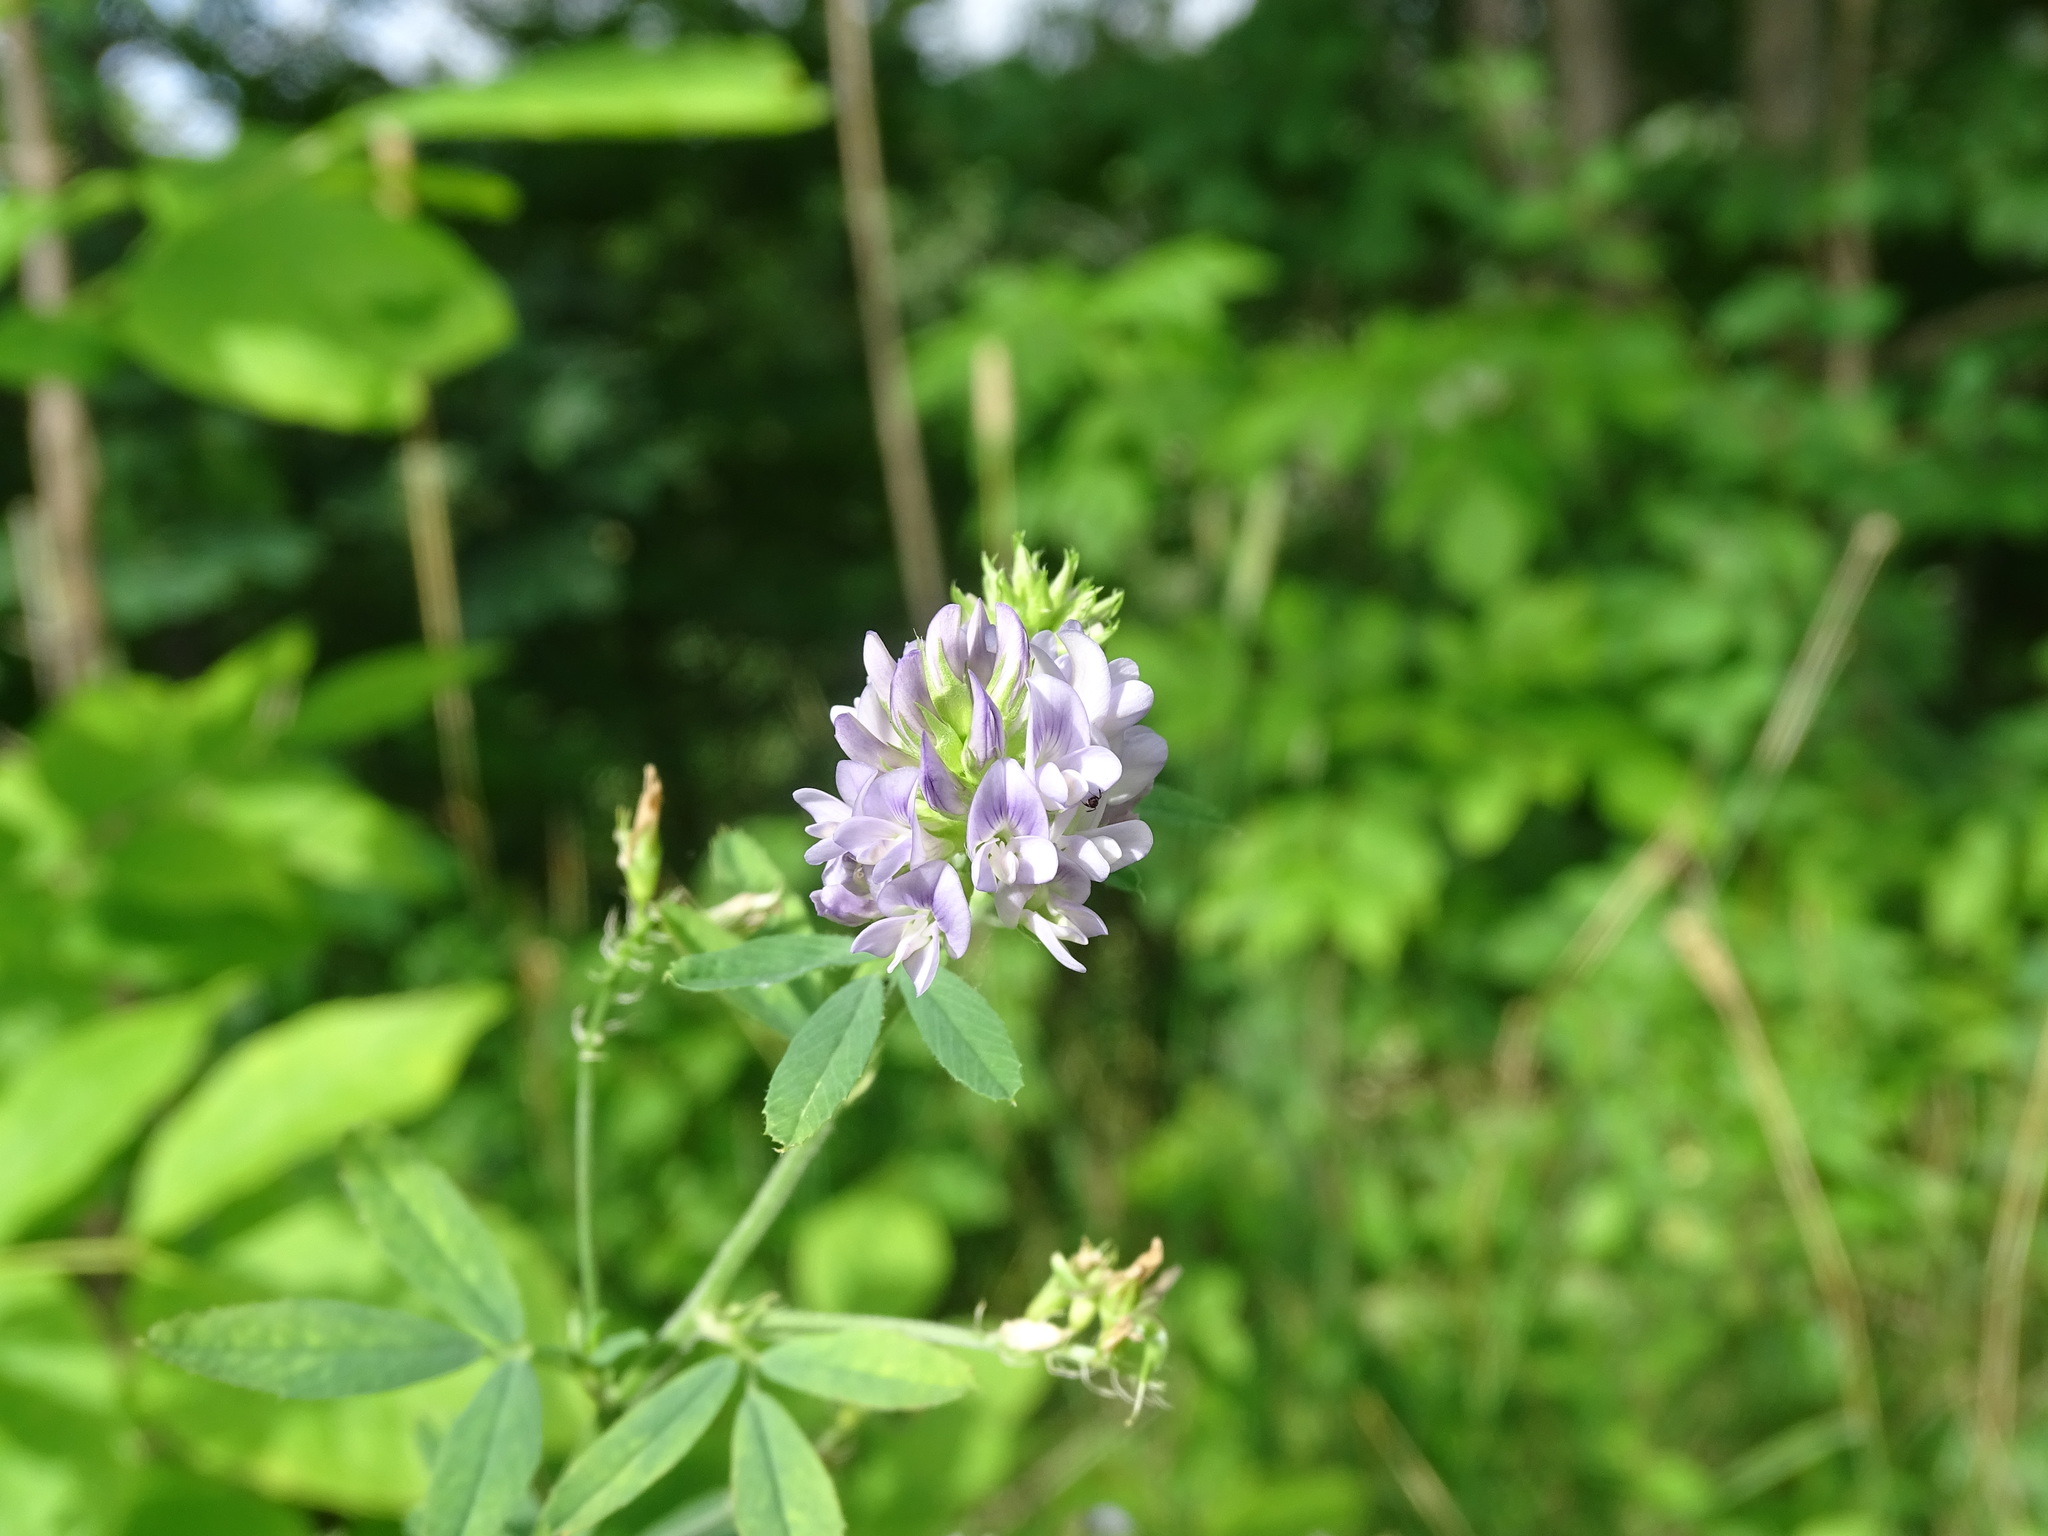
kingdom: Plantae
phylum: Tracheophyta
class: Magnoliopsida
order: Fabales
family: Fabaceae
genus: Medicago
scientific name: Medicago sativa
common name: Alfalfa
